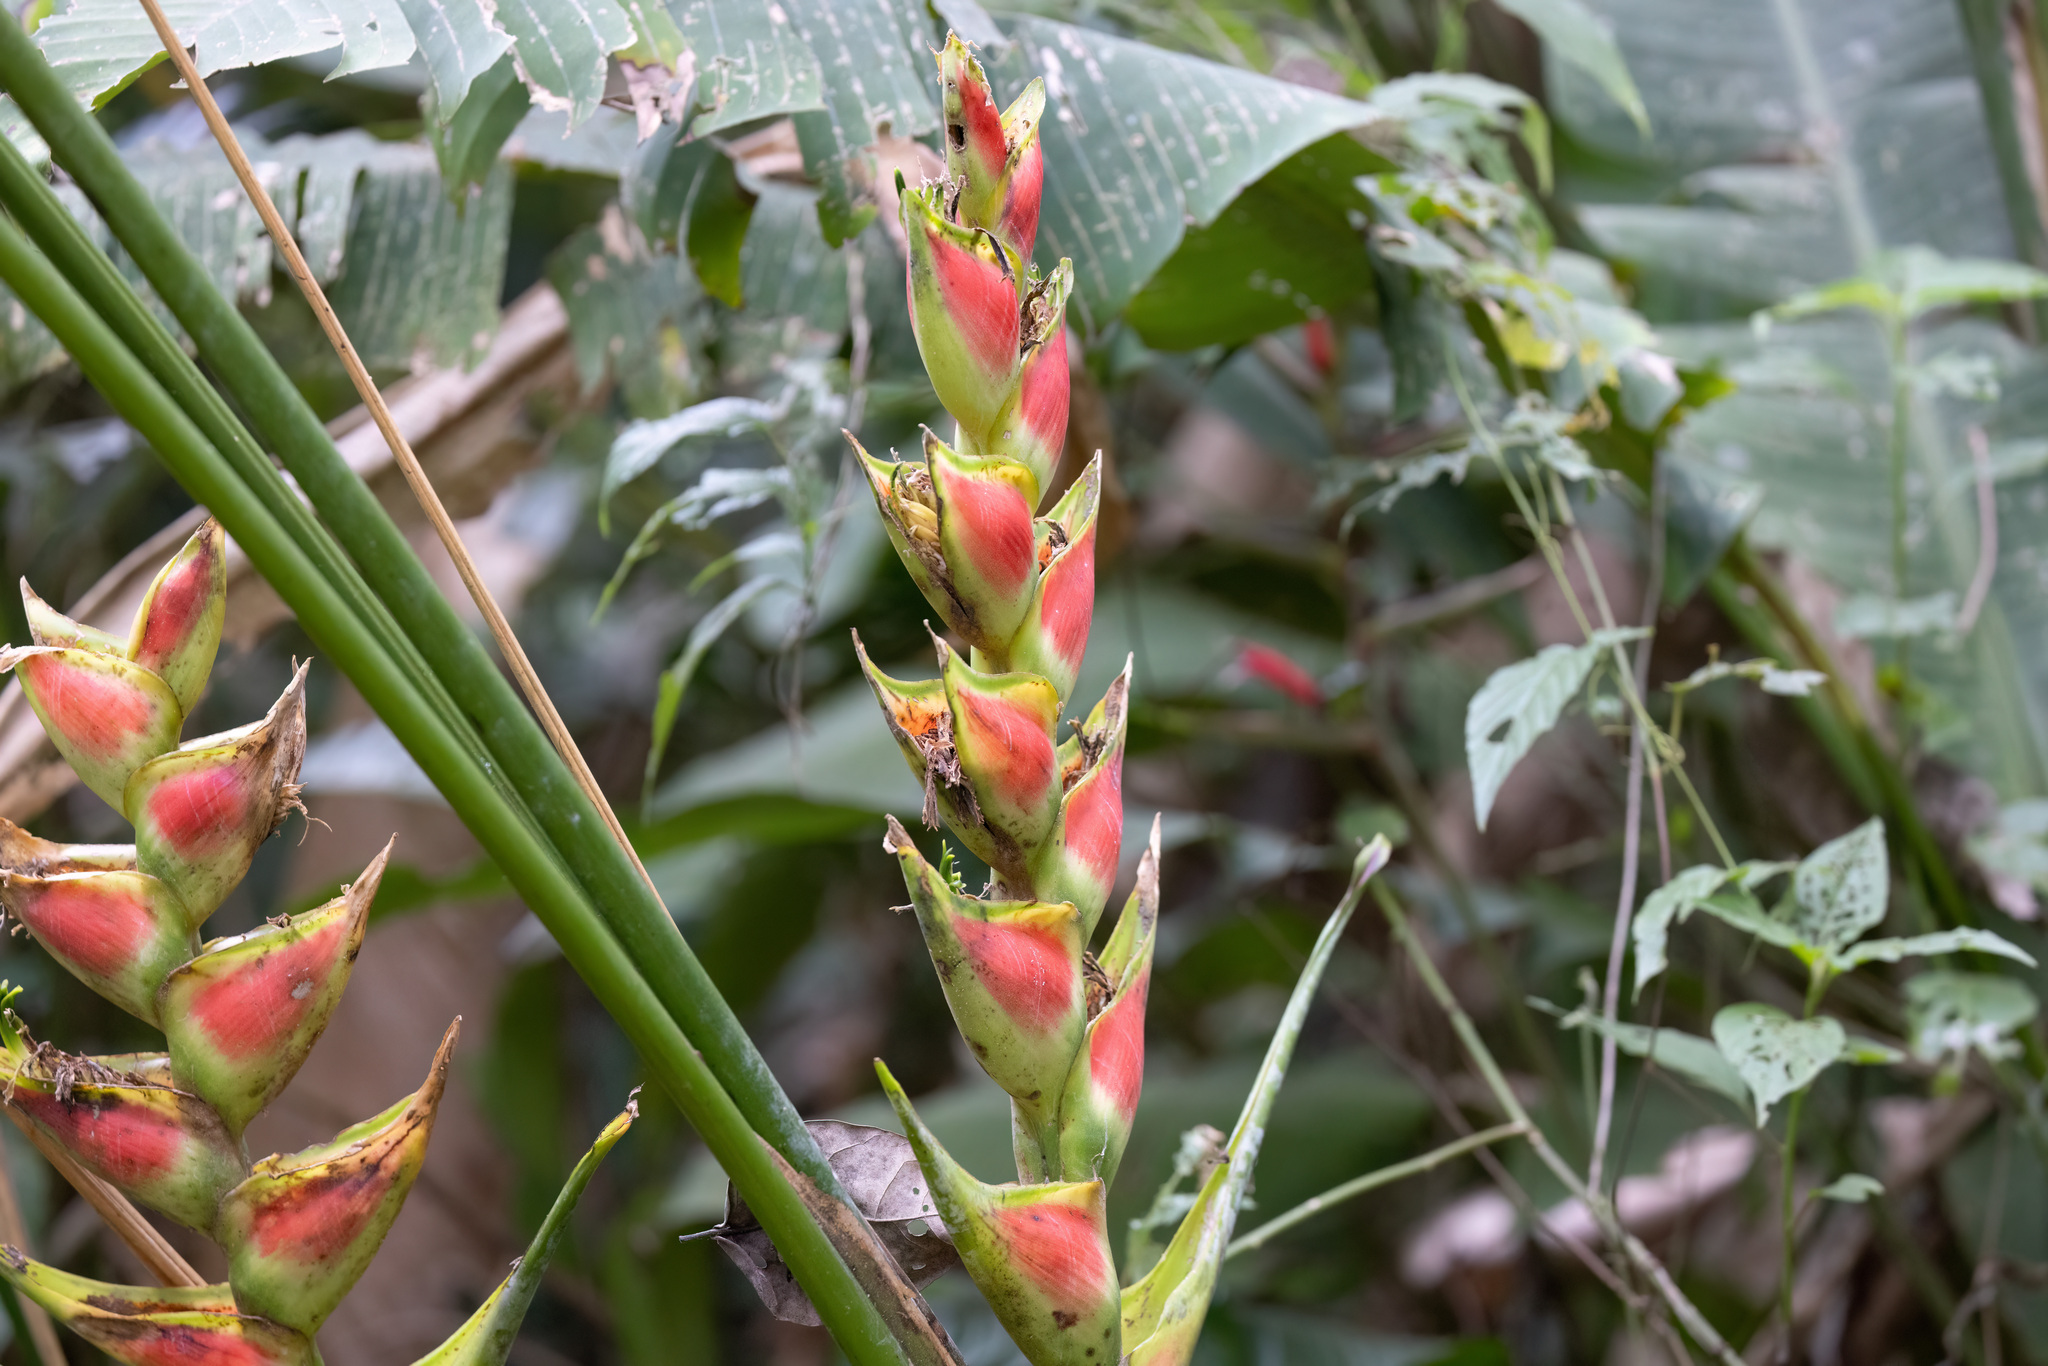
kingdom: Plantae
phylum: Tracheophyta
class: Liliopsida
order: Zingiberales
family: Heliconiaceae
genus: Heliconia
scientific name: Heliconia wagneriana
